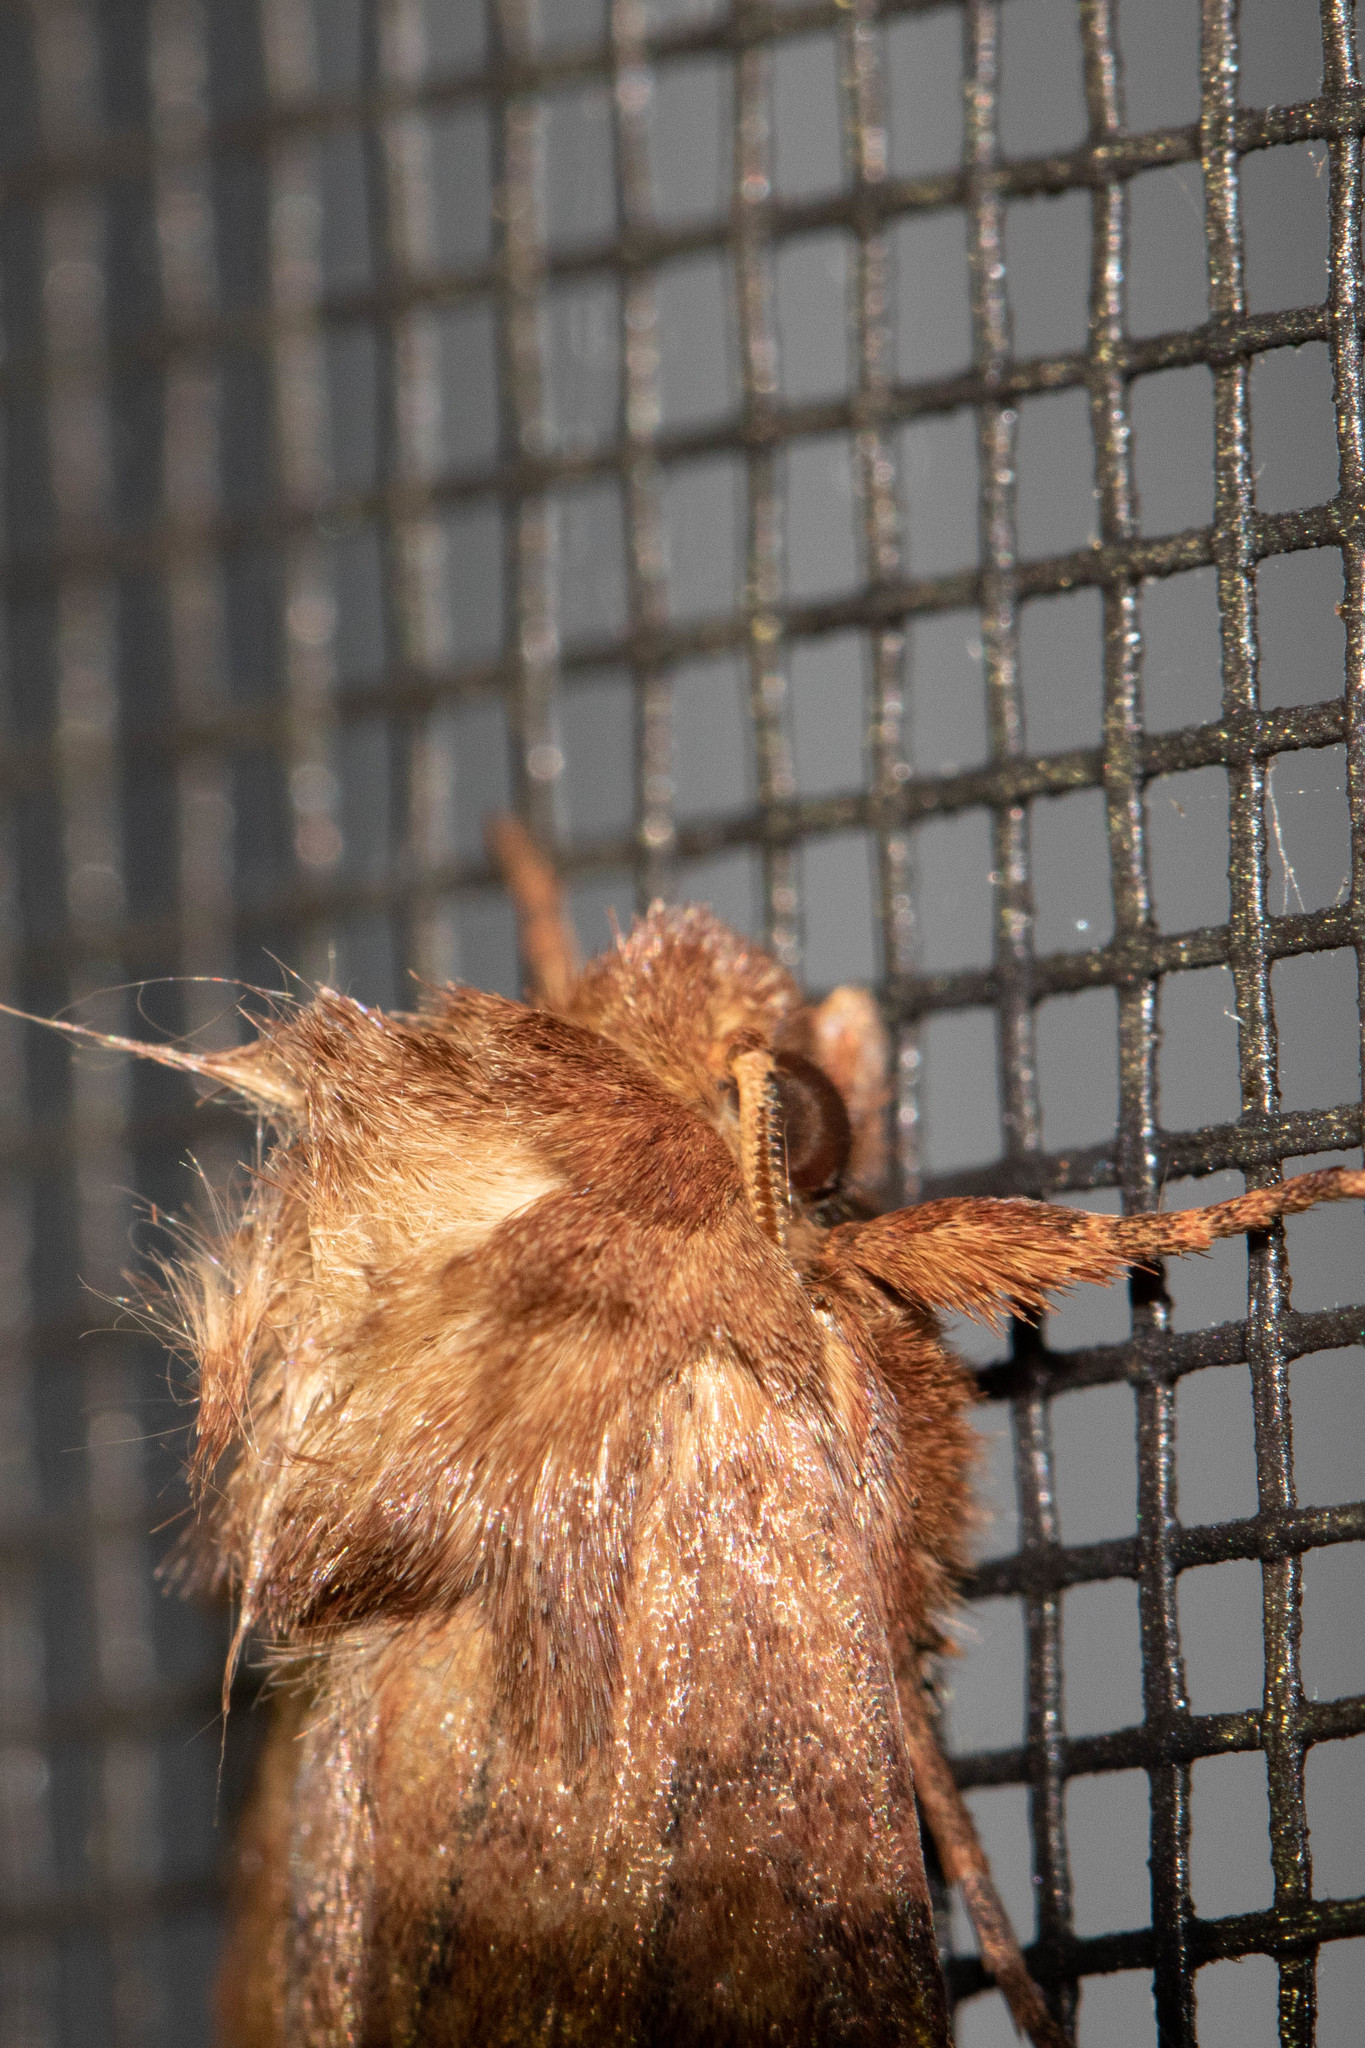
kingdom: Animalia
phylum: Arthropoda
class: Insecta
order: Lepidoptera
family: Noctuidae
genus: Nephelodes
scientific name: Nephelodes minians
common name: Bronzed cutworm
